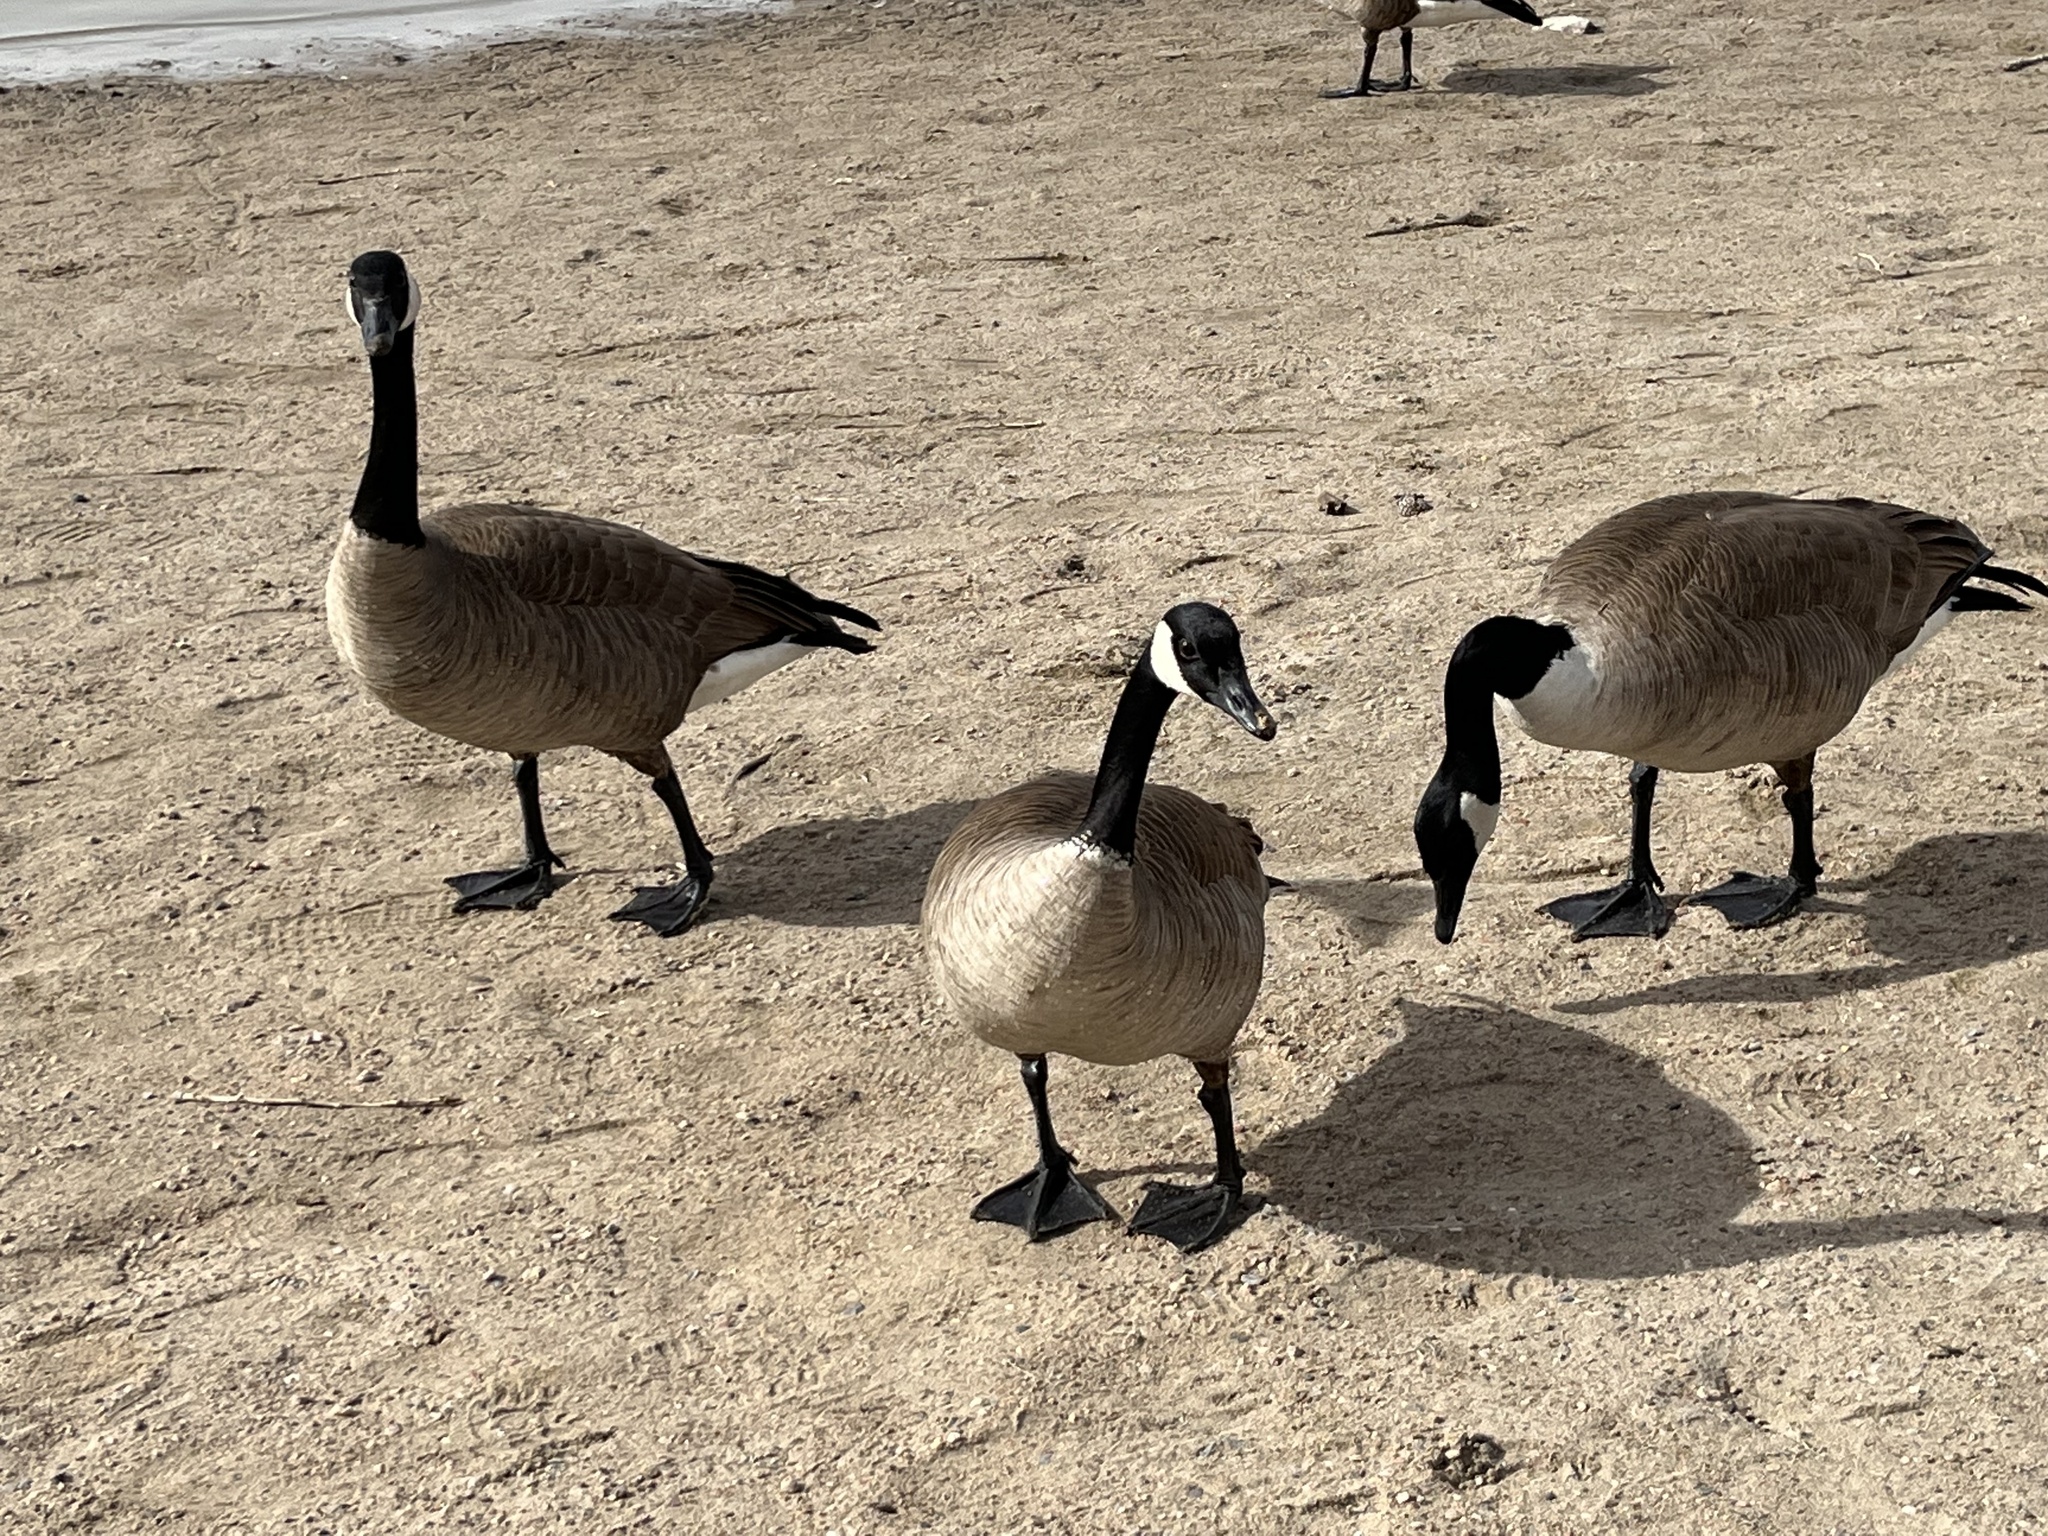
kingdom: Animalia
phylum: Chordata
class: Aves
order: Anseriformes
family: Anatidae
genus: Branta
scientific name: Branta canadensis
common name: Canada goose
